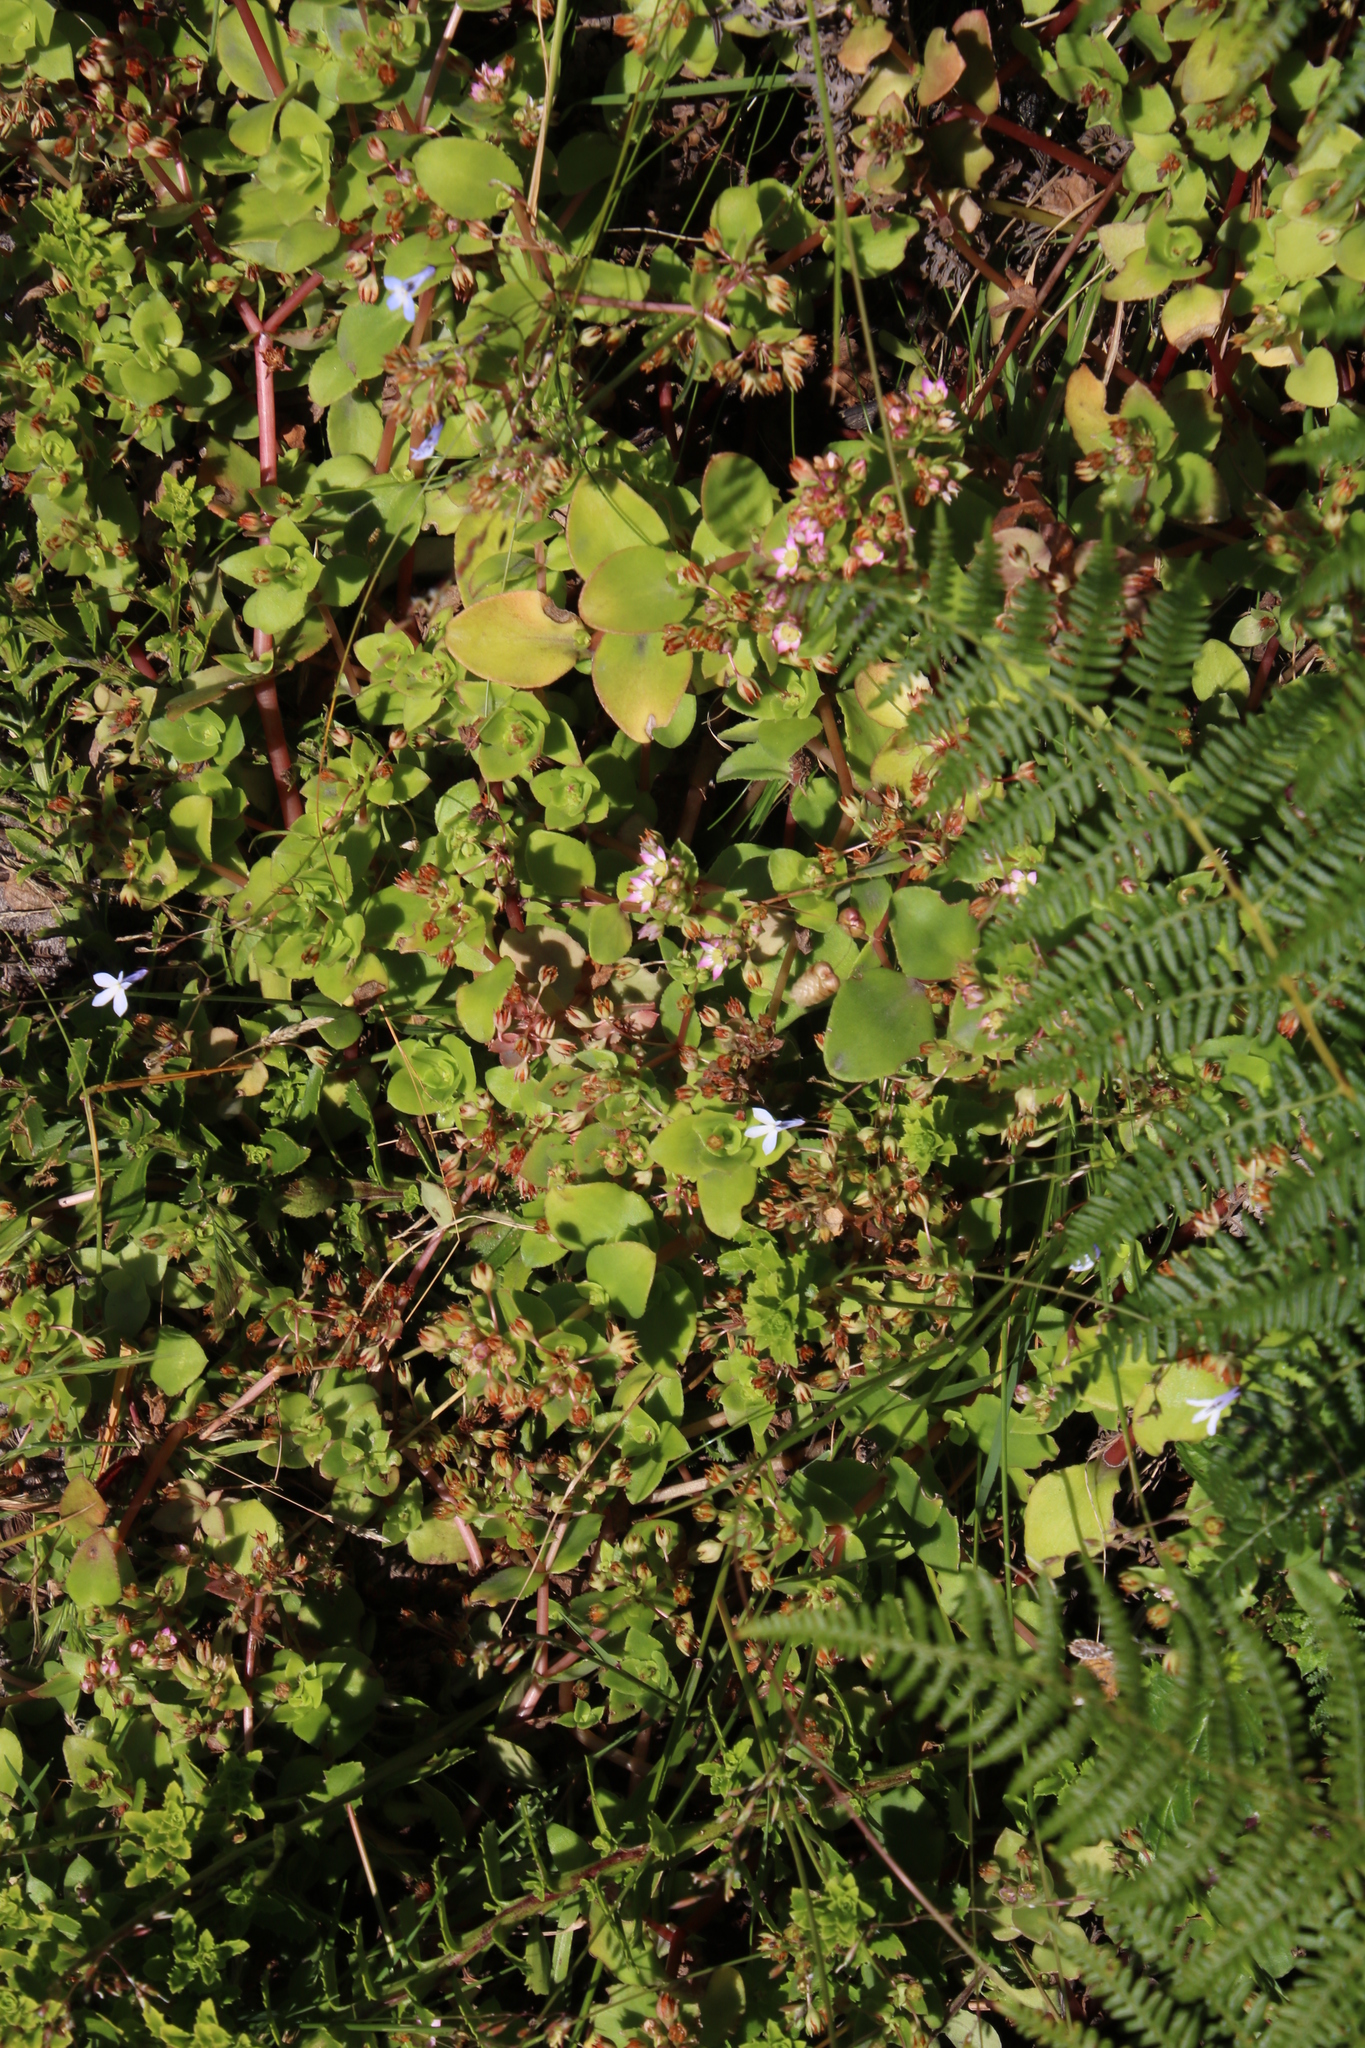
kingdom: Plantae
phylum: Tracheophyta
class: Magnoliopsida
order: Saxifragales
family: Crassulaceae
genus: Crassula
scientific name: Crassula pellucida
